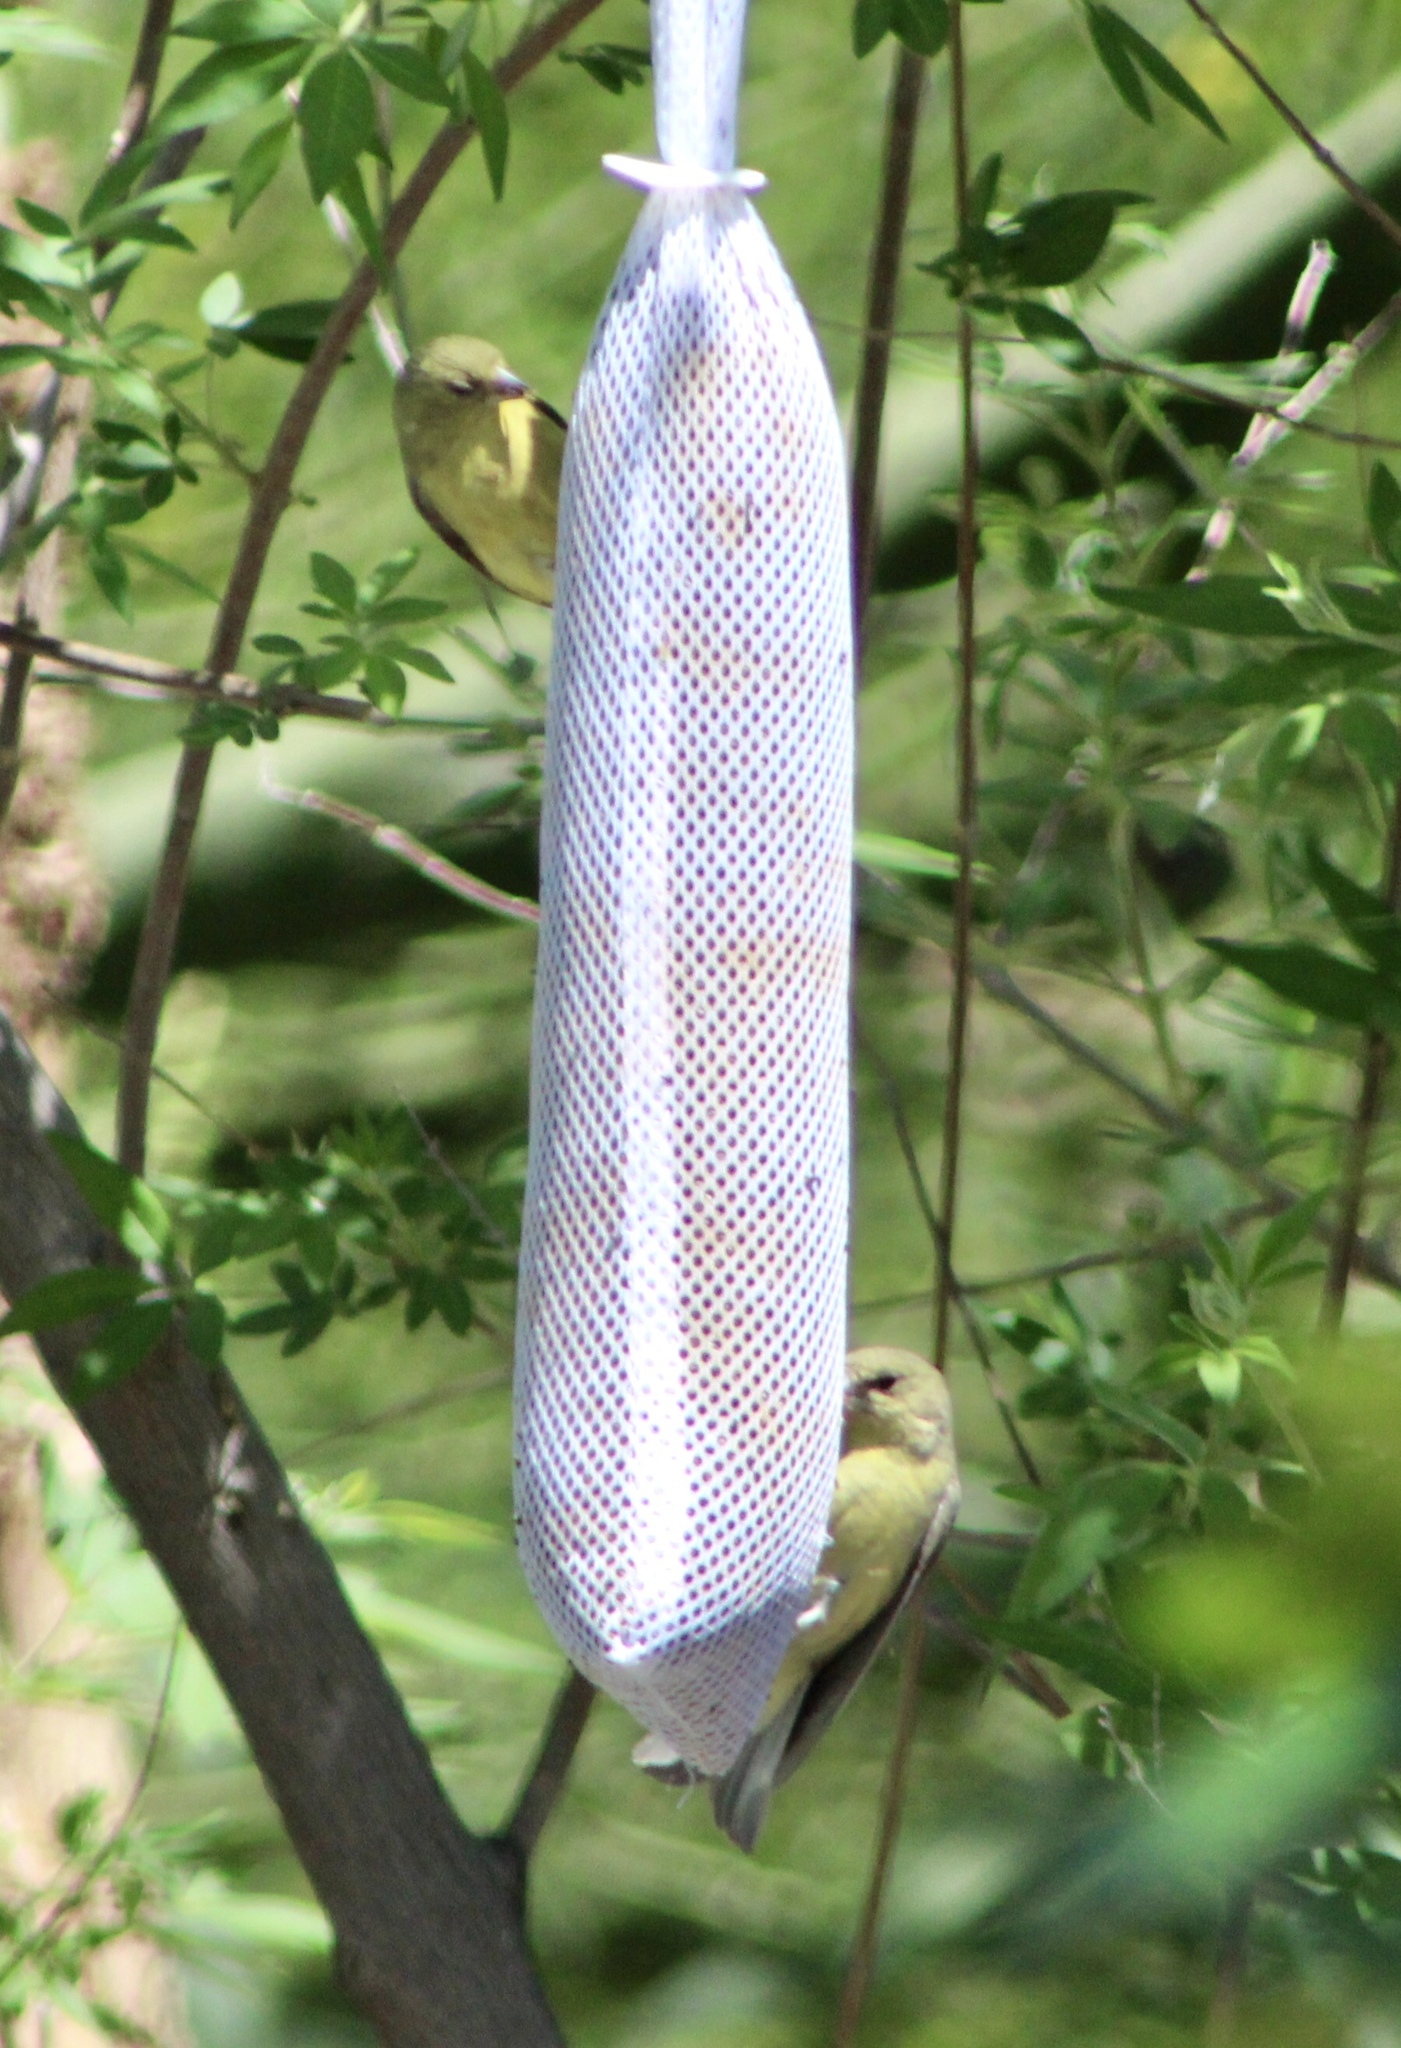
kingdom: Animalia
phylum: Chordata
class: Aves
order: Passeriformes
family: Fringillidae
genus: Spinus
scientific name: Spinus psaltria
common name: Lesser goldfinch
